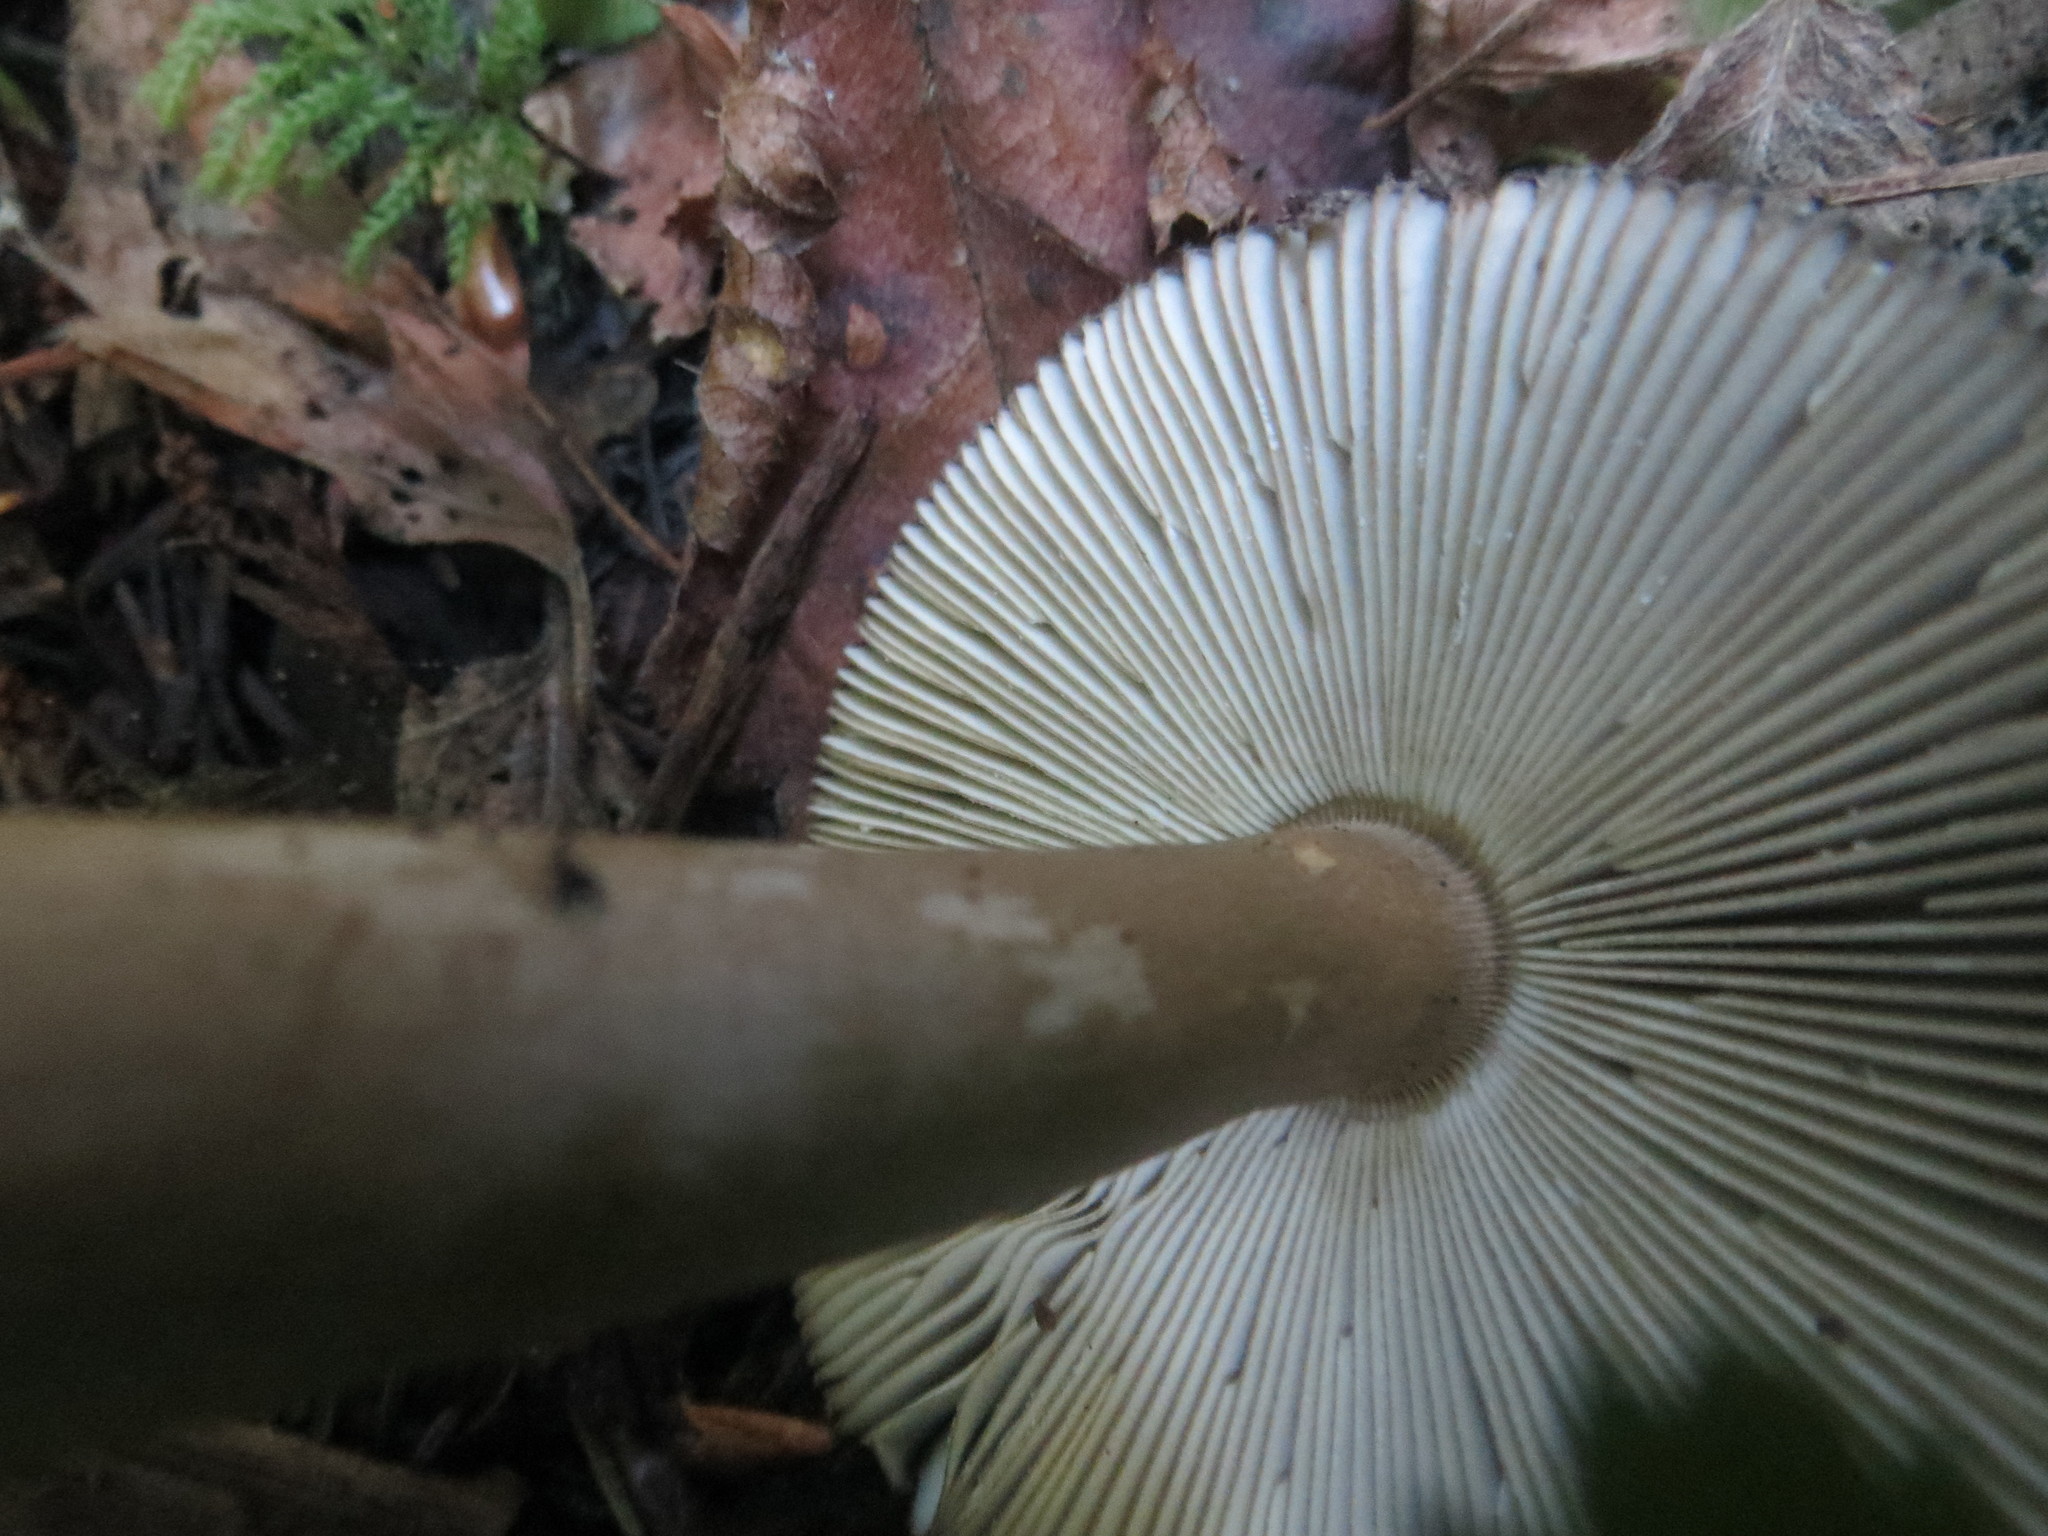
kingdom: Fungi
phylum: Basidiomycota
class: Agaricomycetes
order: Agaricales
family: Amanitaceae
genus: Amanita
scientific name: Amanita pachycolea
